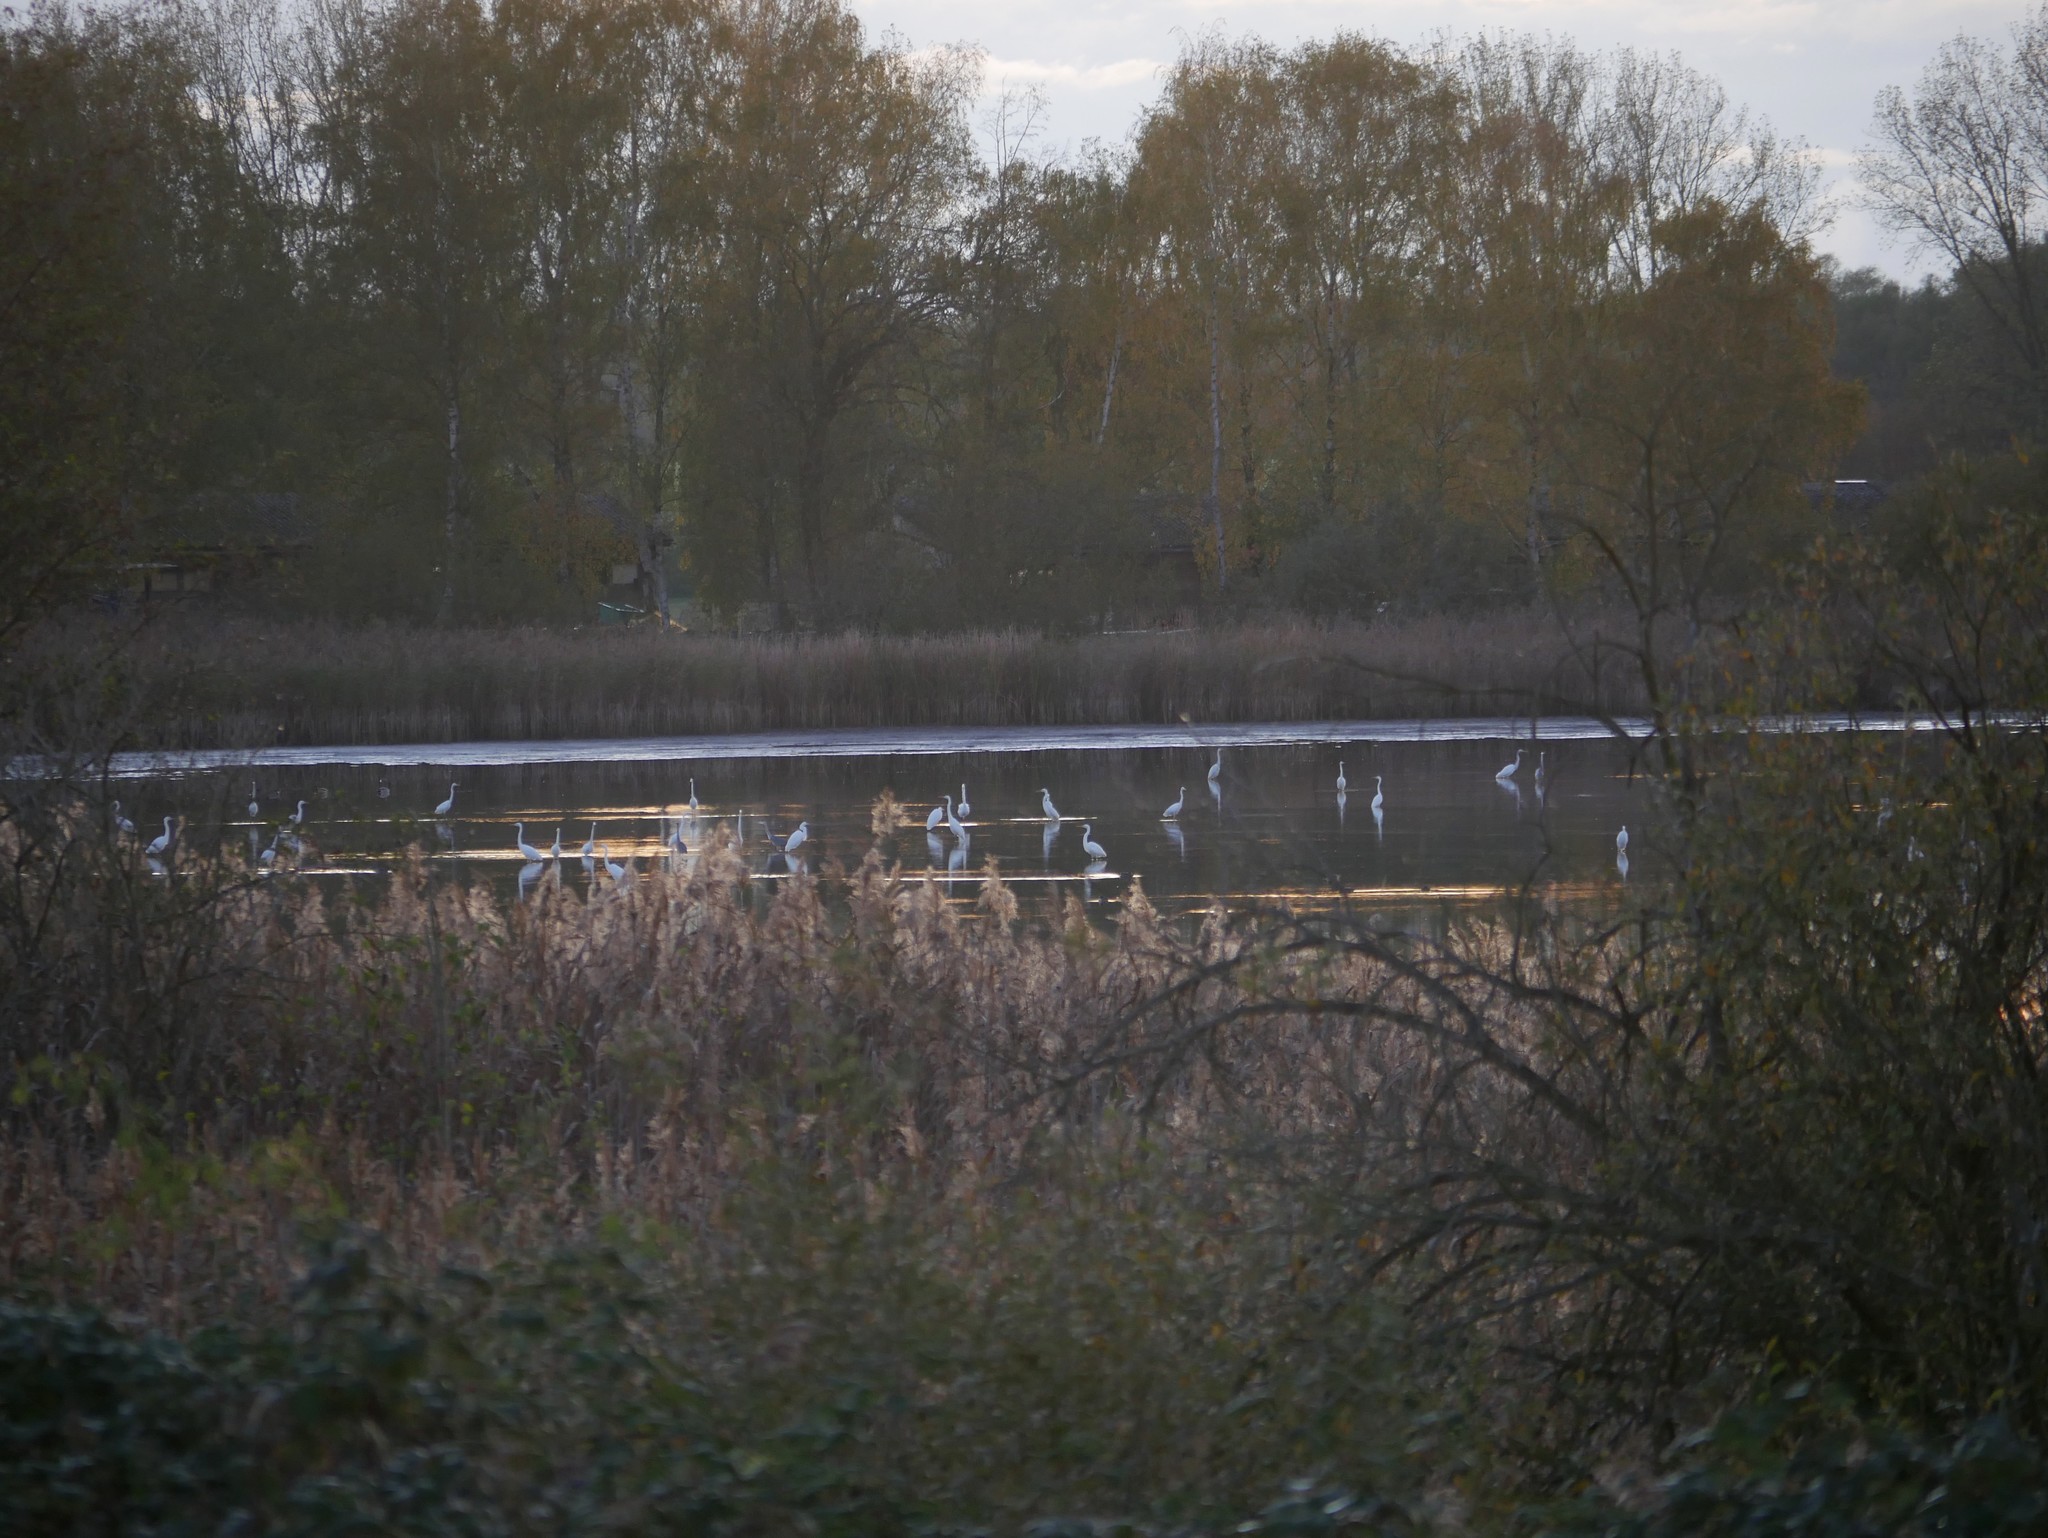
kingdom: Animalia
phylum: Chordata
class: Aves
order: Pelecaniformes
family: Ardeidae
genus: Ardea
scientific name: Ardea alba
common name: Great egret
